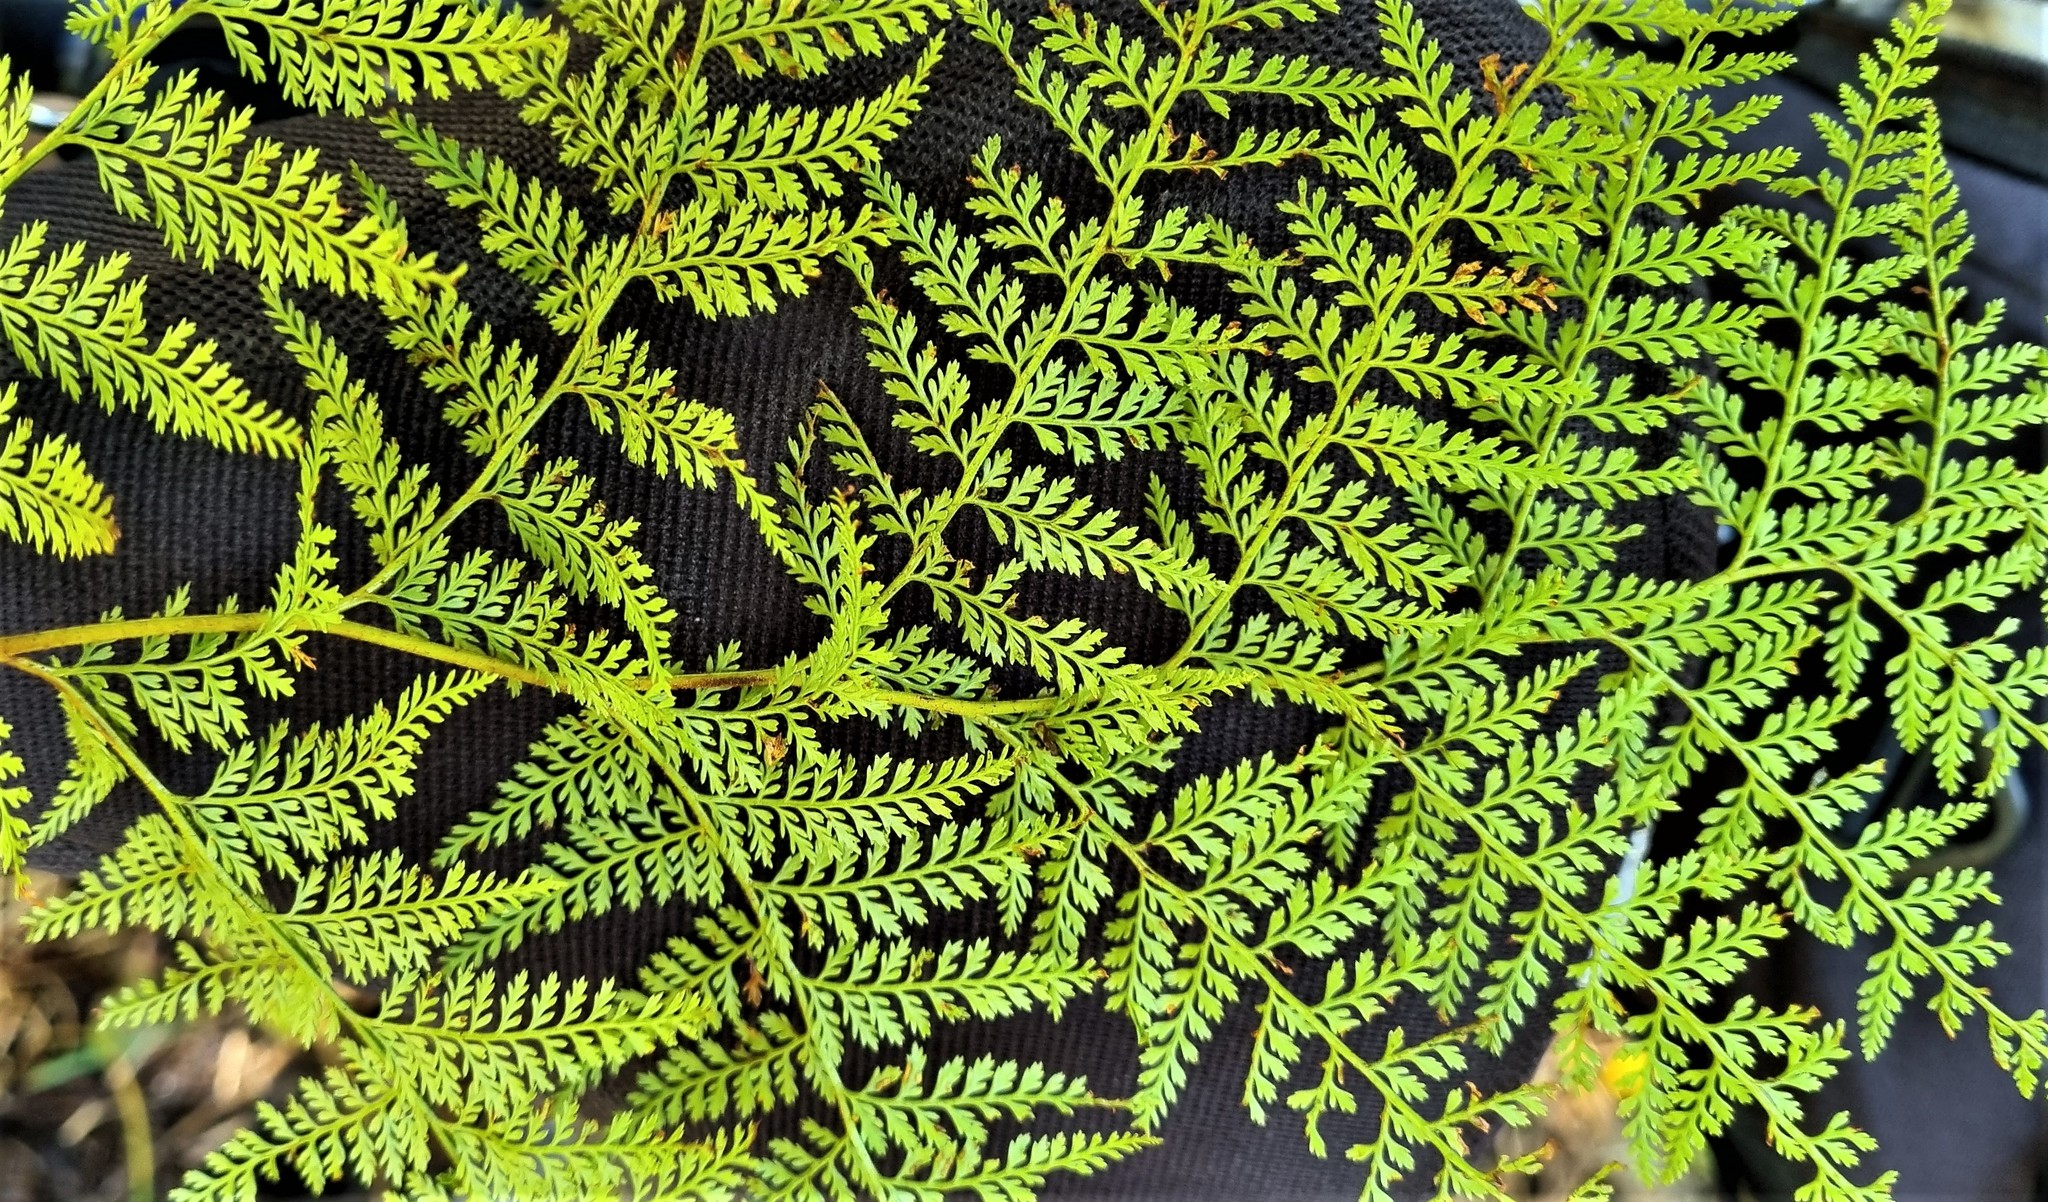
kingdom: Plantae
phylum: Tracheophyta
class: Polypodiopsida
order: Polypodiales
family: Dennstaedtiaceae
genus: Paesia
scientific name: Paesia scaberula
